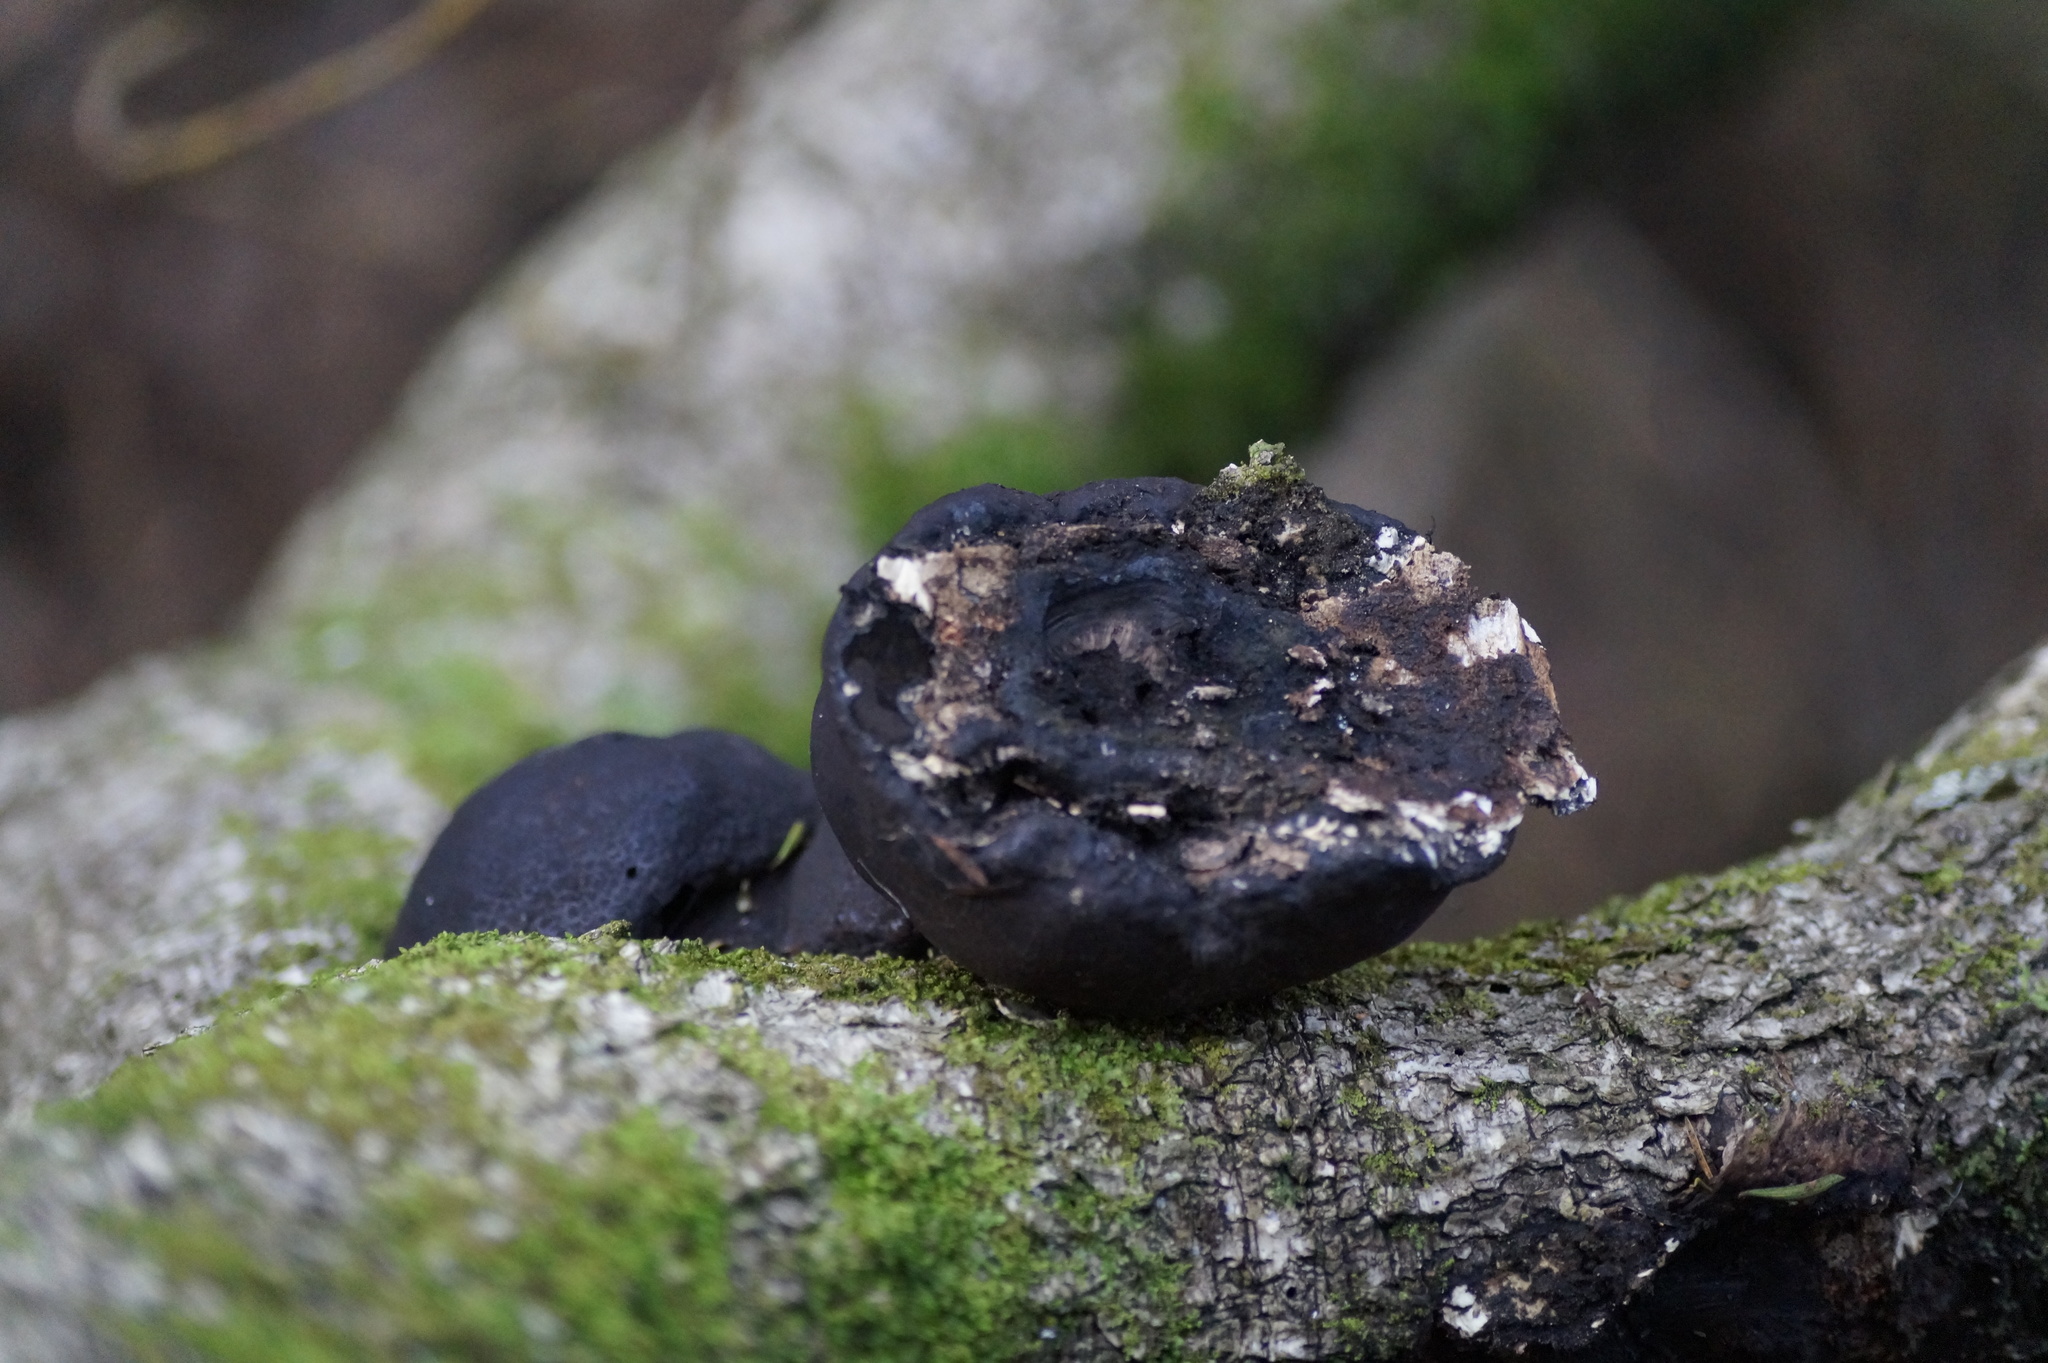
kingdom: Fungi
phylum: Ascomycota
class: Sordariomycetes
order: Xylariales
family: Hypoxylaceae
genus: Daldinia
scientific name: Daldinia
